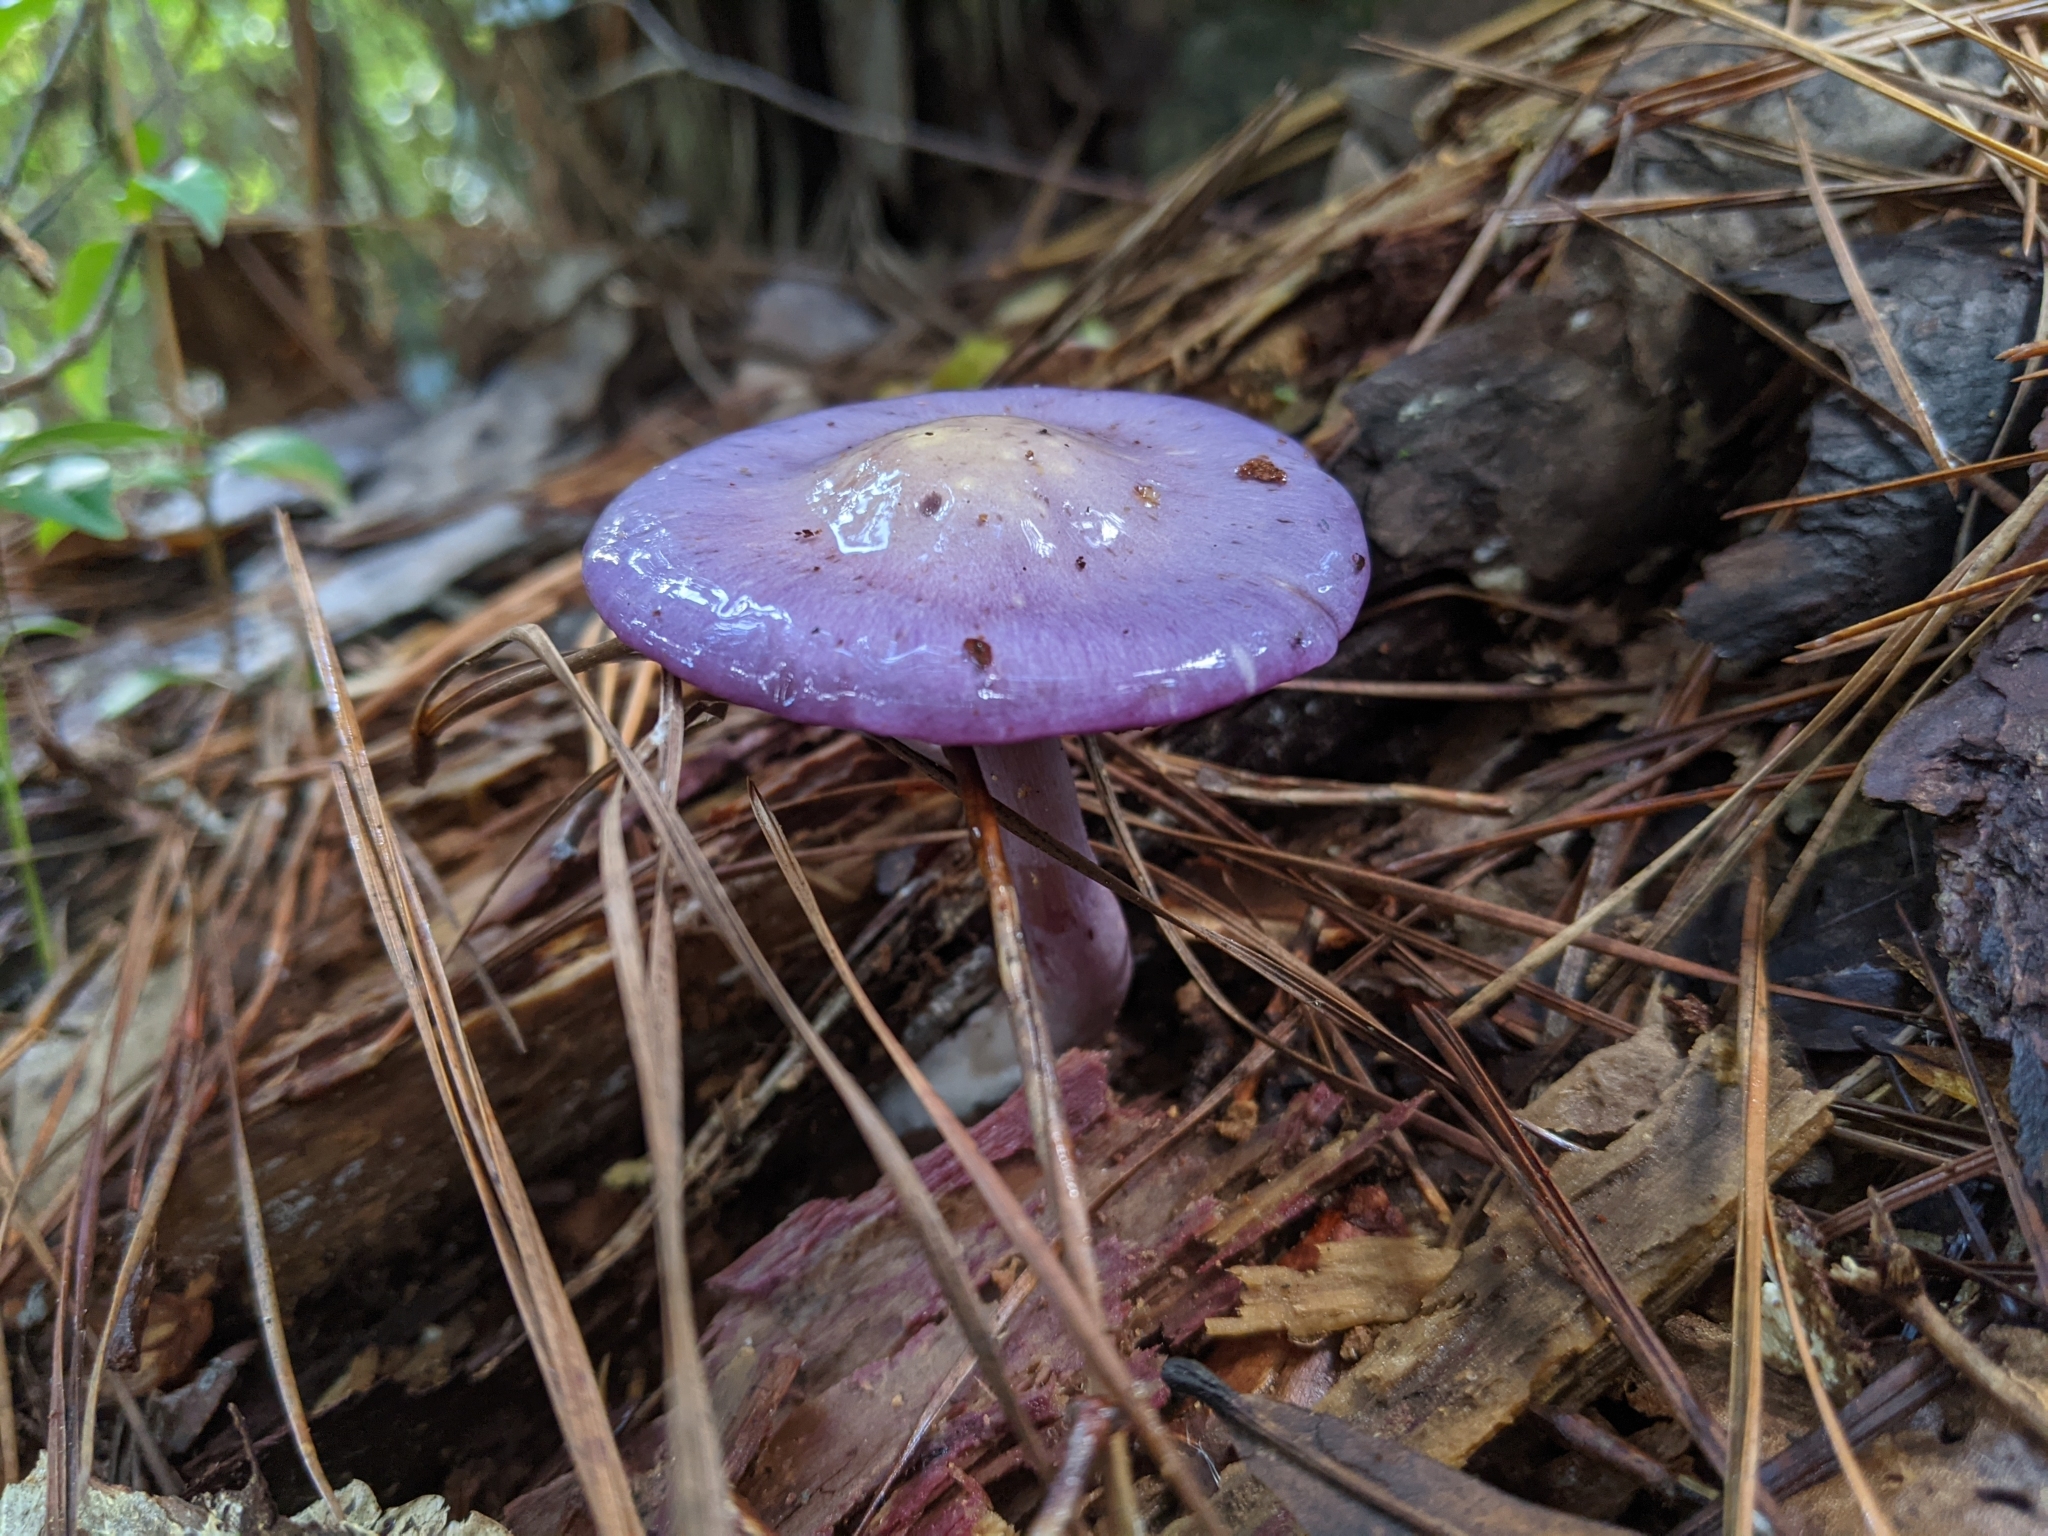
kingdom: Fungi
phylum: Basidiomycota
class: Agaricomycetes
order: Agaricales
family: Cortinariaceae
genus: Cortinarius
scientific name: Cortinarius iodes
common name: Viscid violet cort
